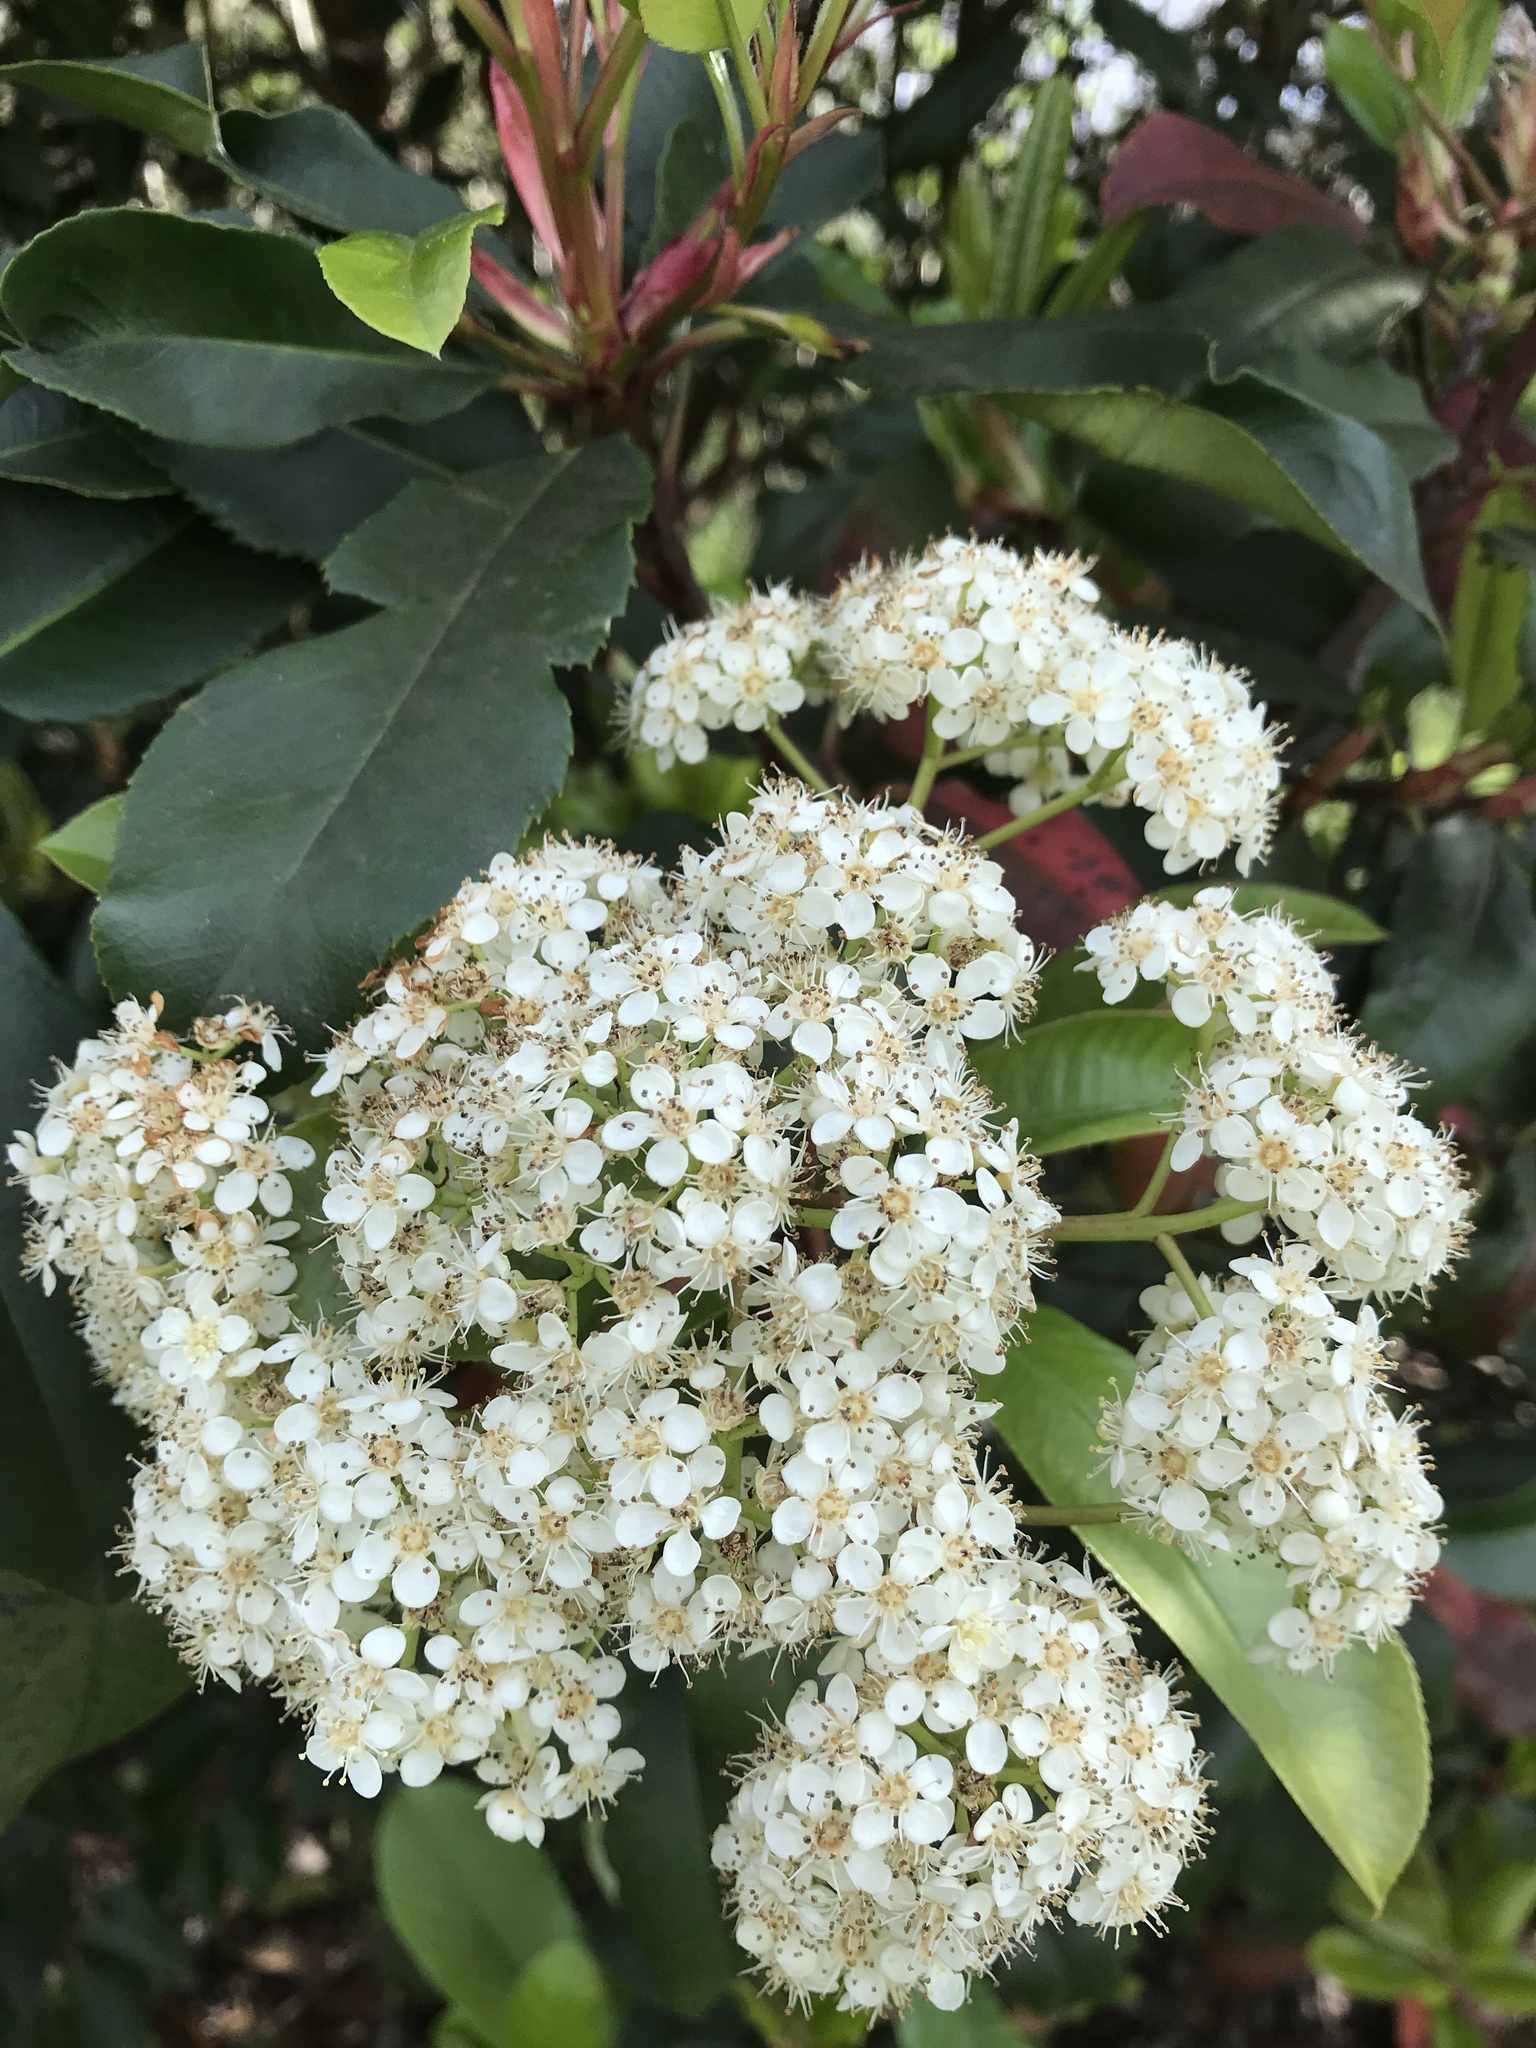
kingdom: Plantae
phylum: Tracheophyta
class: Magnoliopsida
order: Rosales
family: Rosaceae
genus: Photinia
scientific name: Photinia serratifolia
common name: Taiwanese photinia
